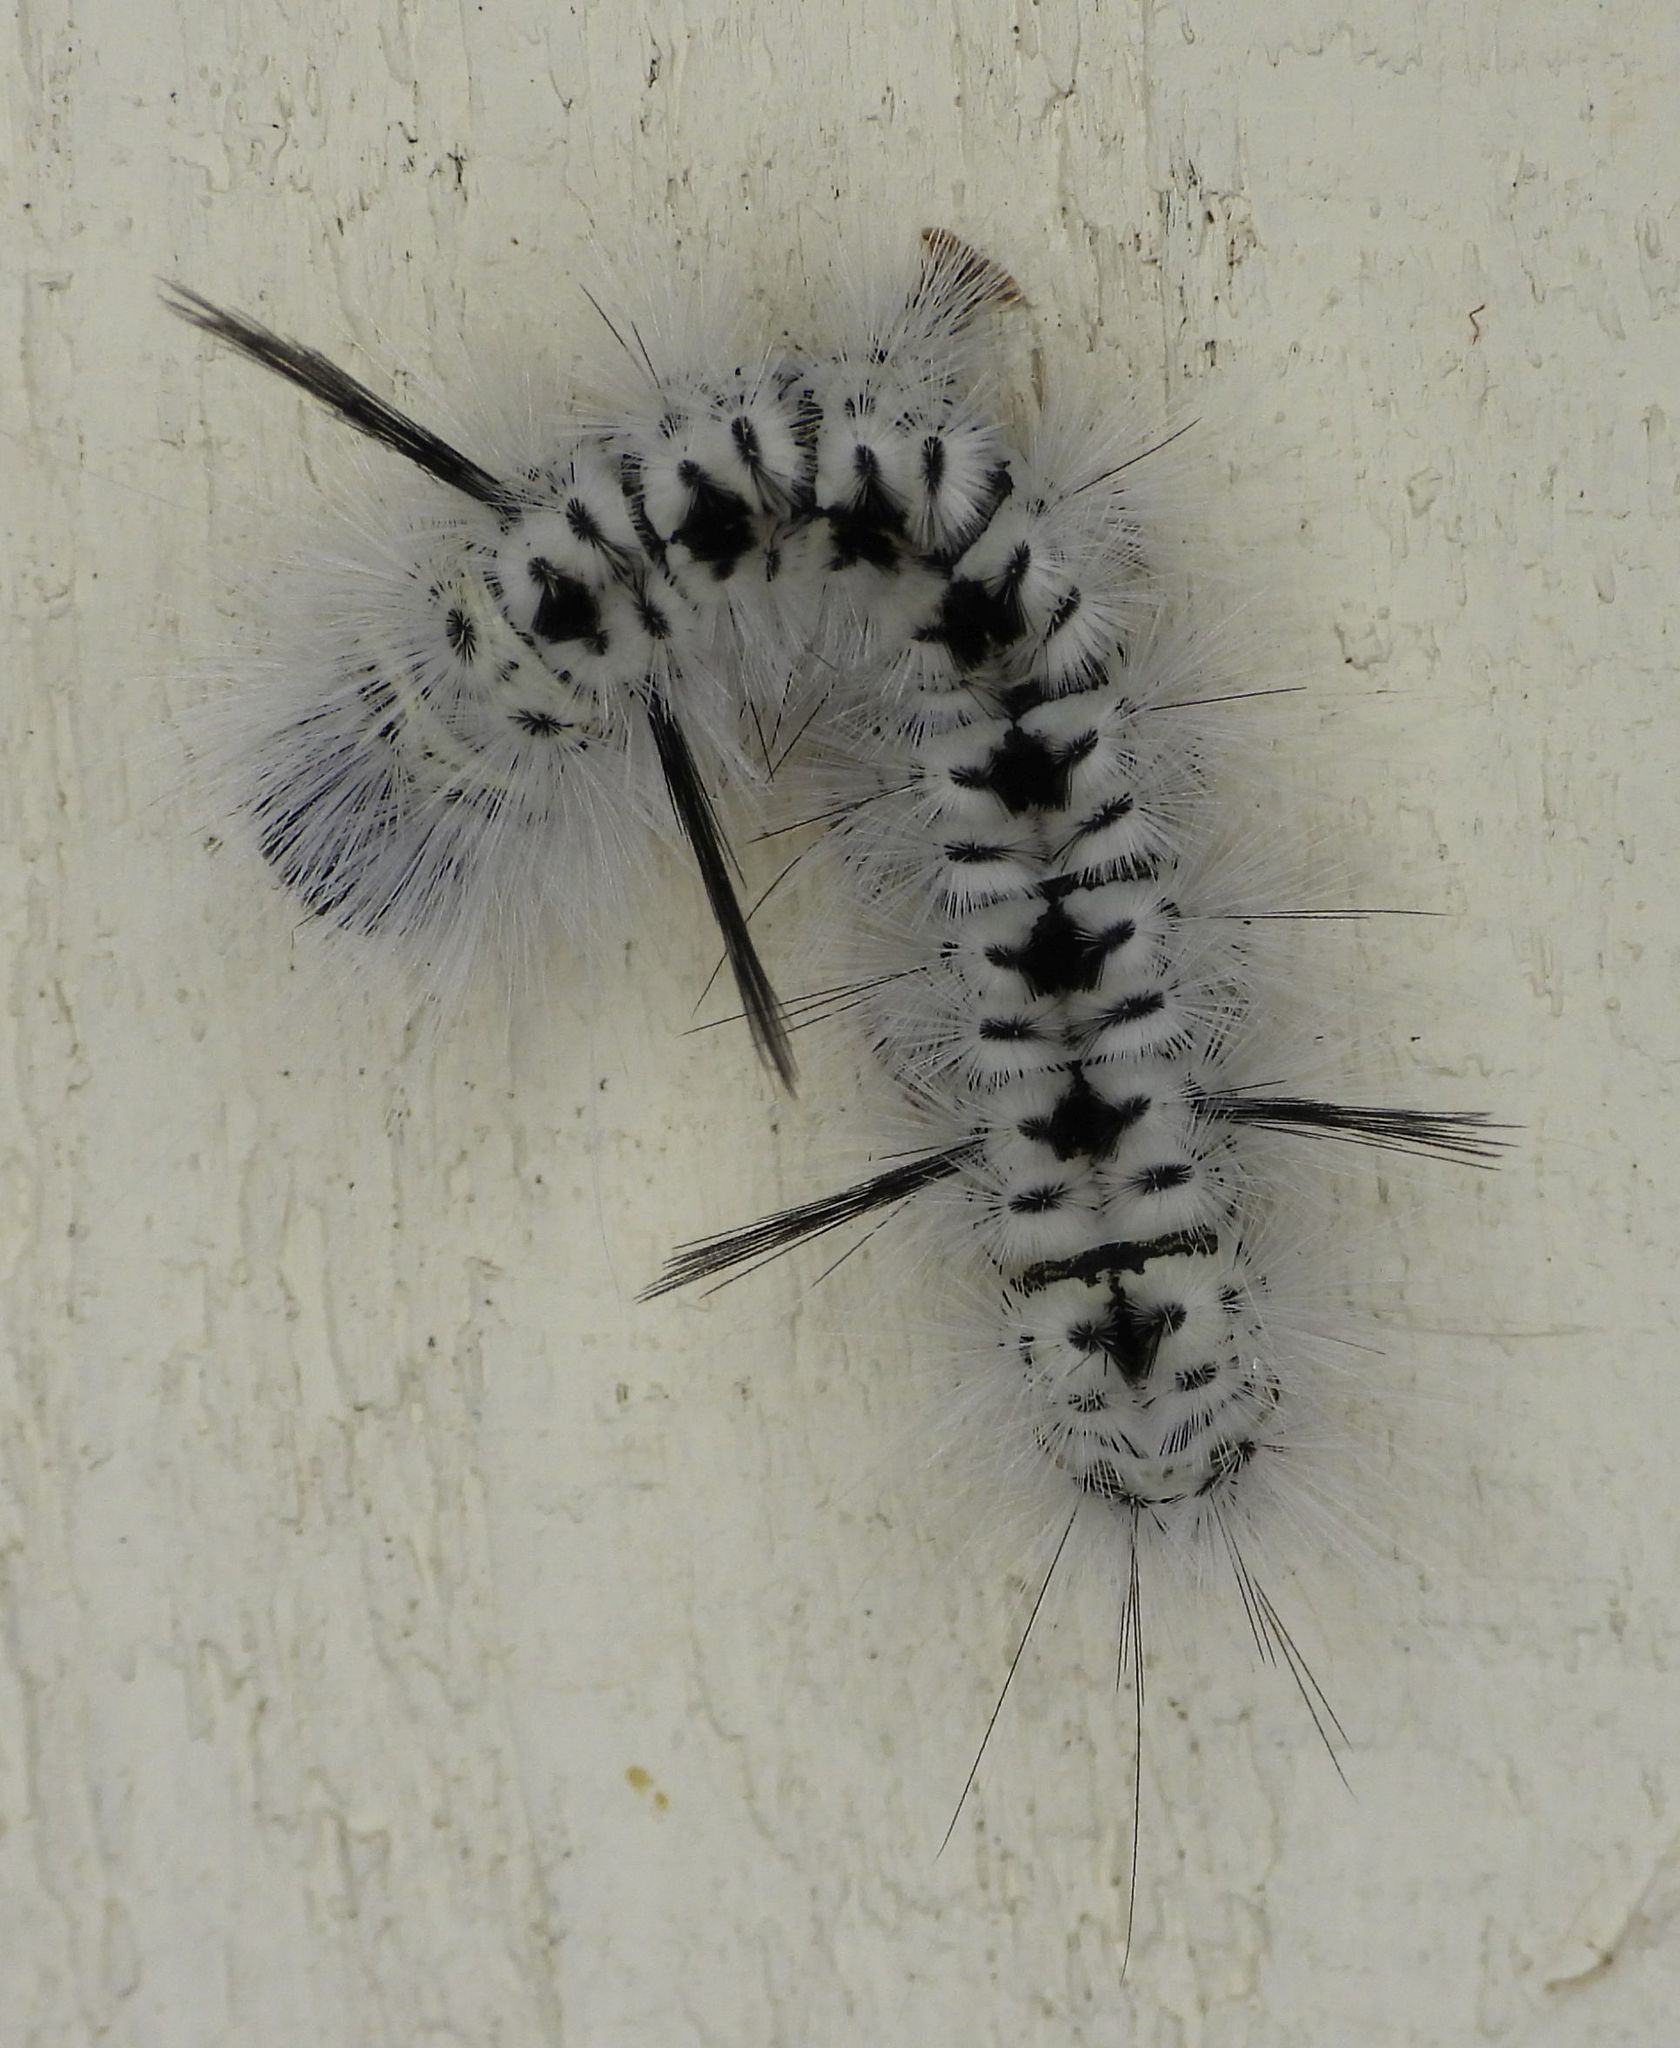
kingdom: Animalia
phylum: Arthropoda
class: Insecta
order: Lepidoptera
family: Erebidae
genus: Lophocampa
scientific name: Lophocampa caryae
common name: Hickory tussock moth
